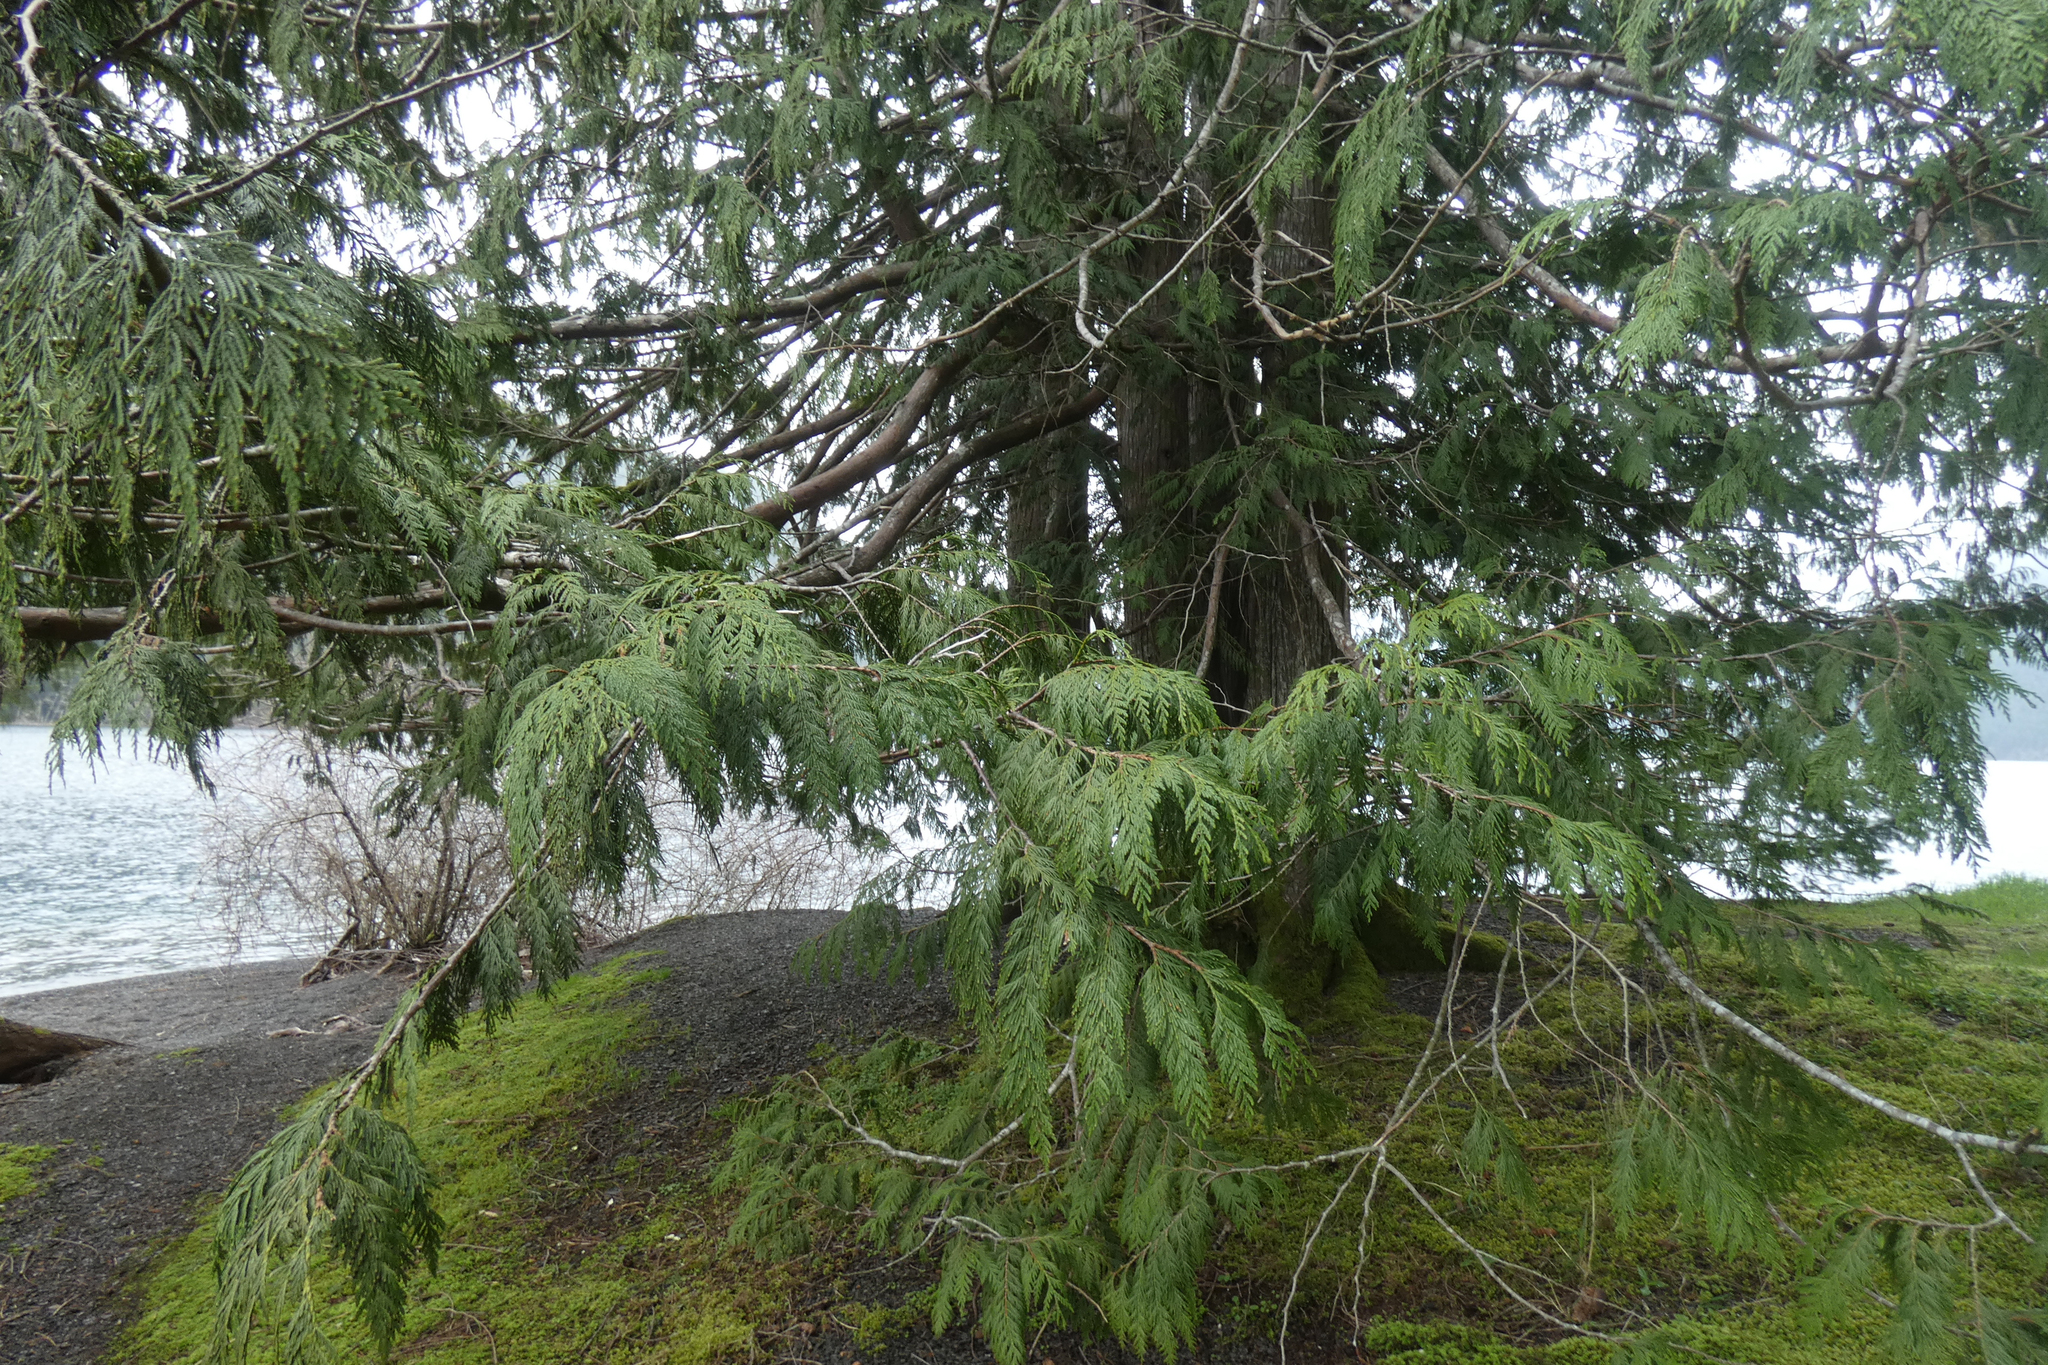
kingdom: Plantae
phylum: Tracheophyta
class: Pinopsida
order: Pinales
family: Cupressaceae
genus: Thuja
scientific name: Thuja plicata
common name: Western red-cedar
